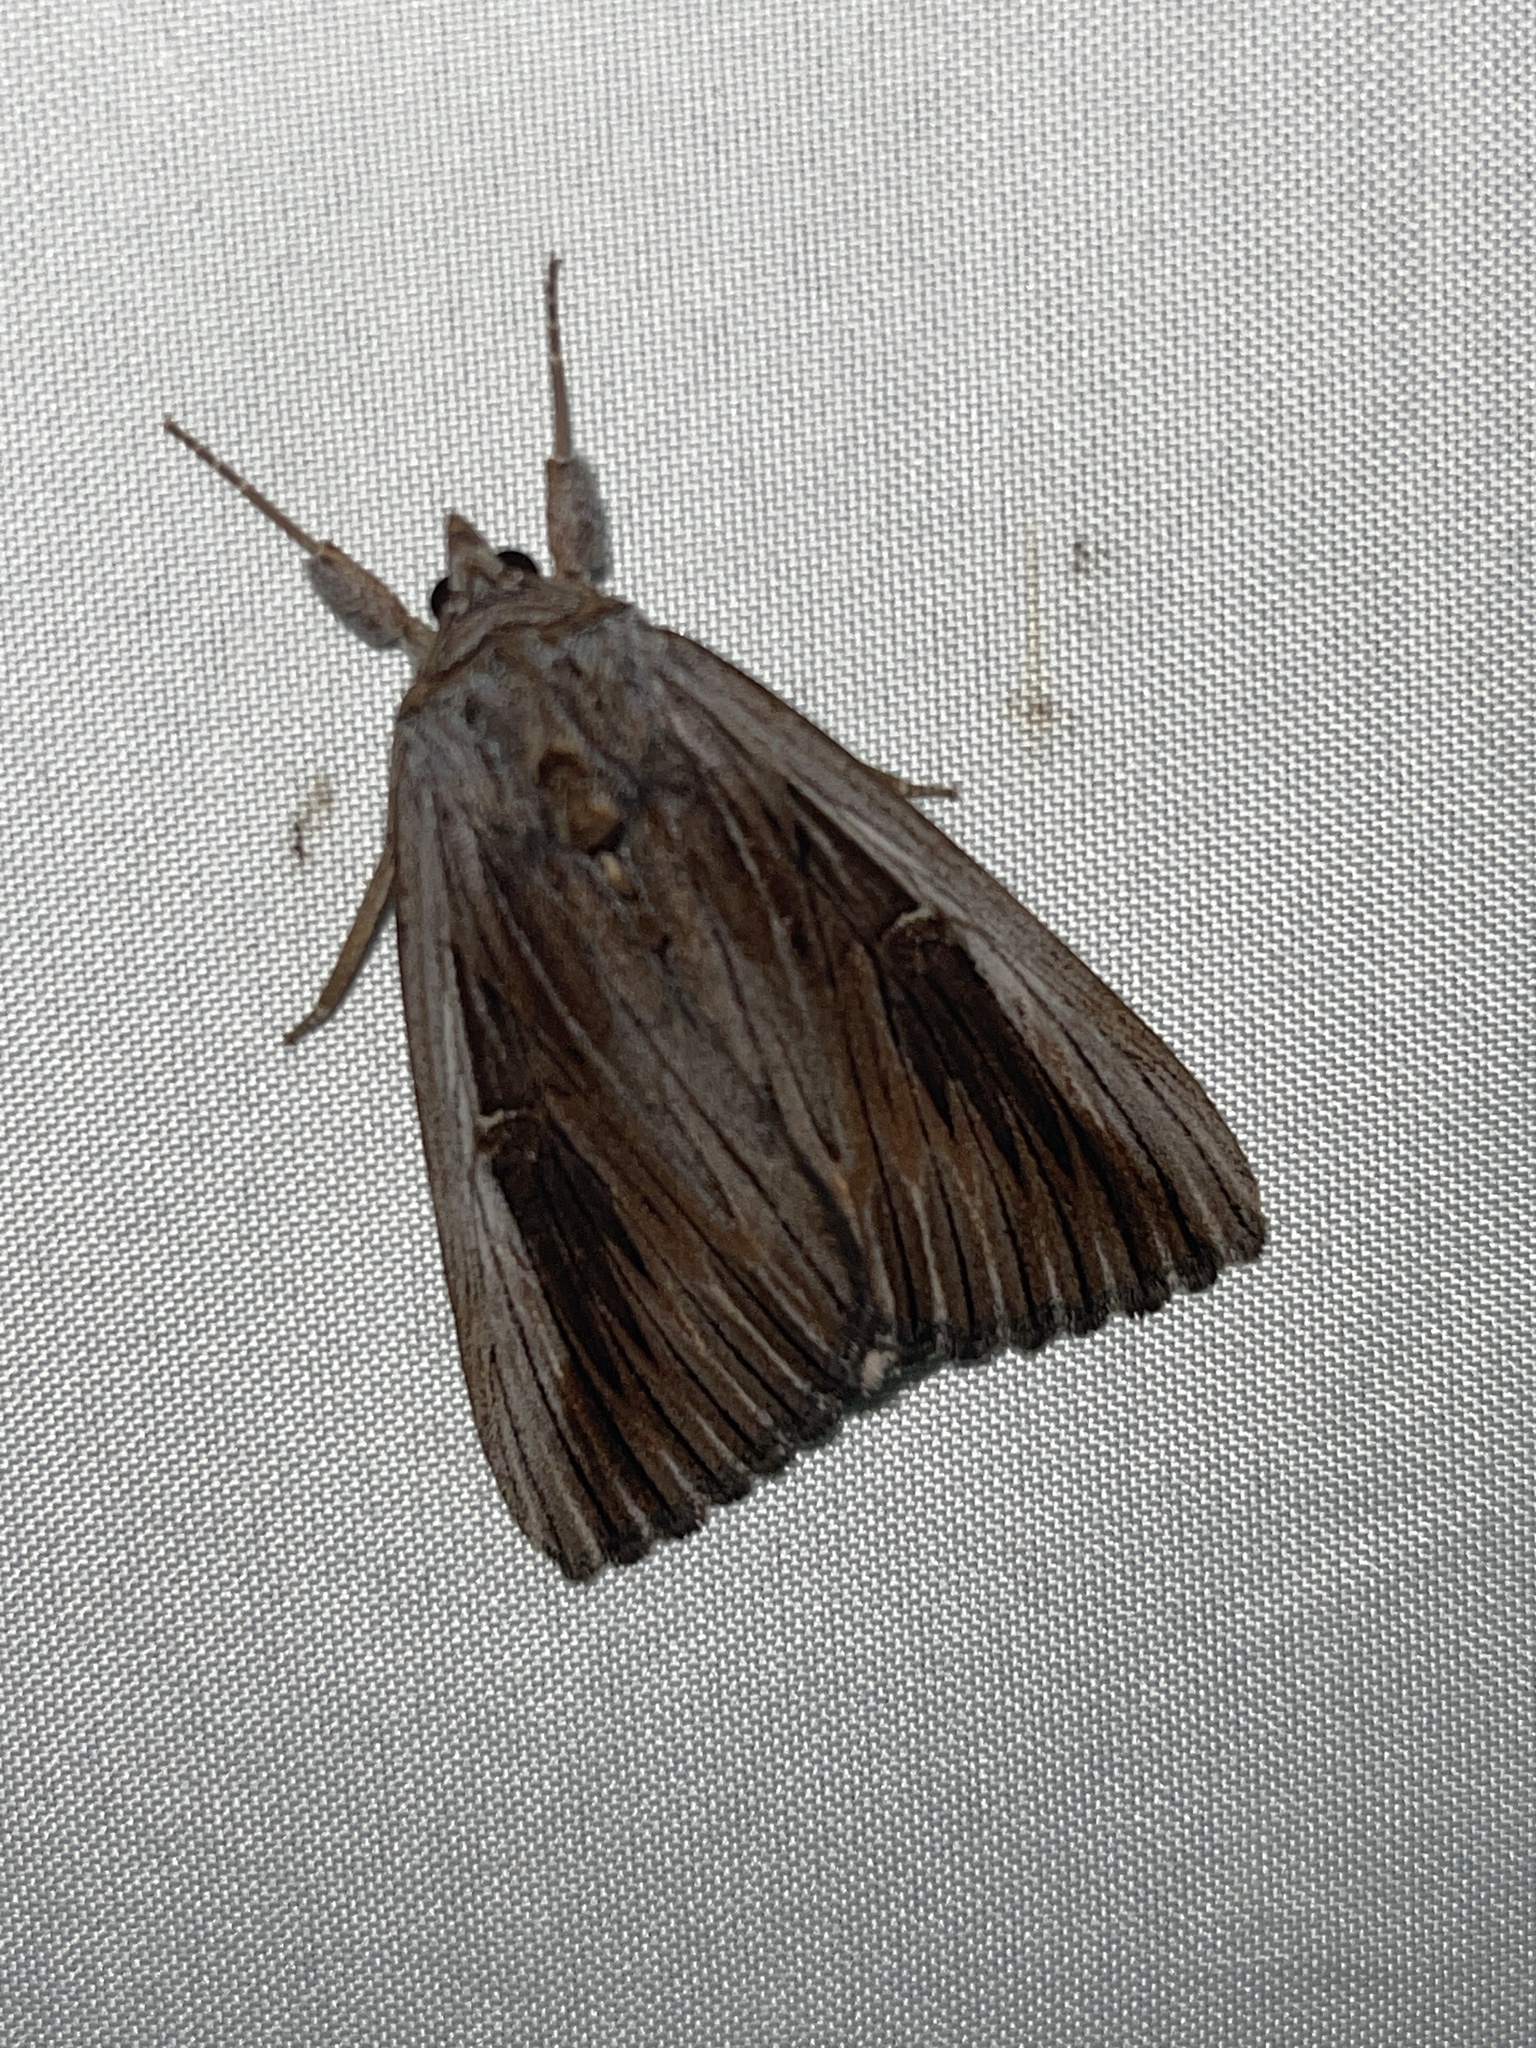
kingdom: Animalia
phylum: Arthropoda
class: Insecta
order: Lepidoptera
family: Erebidae
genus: Catocala
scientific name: Catocala herodias
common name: Pine barrens underwing
